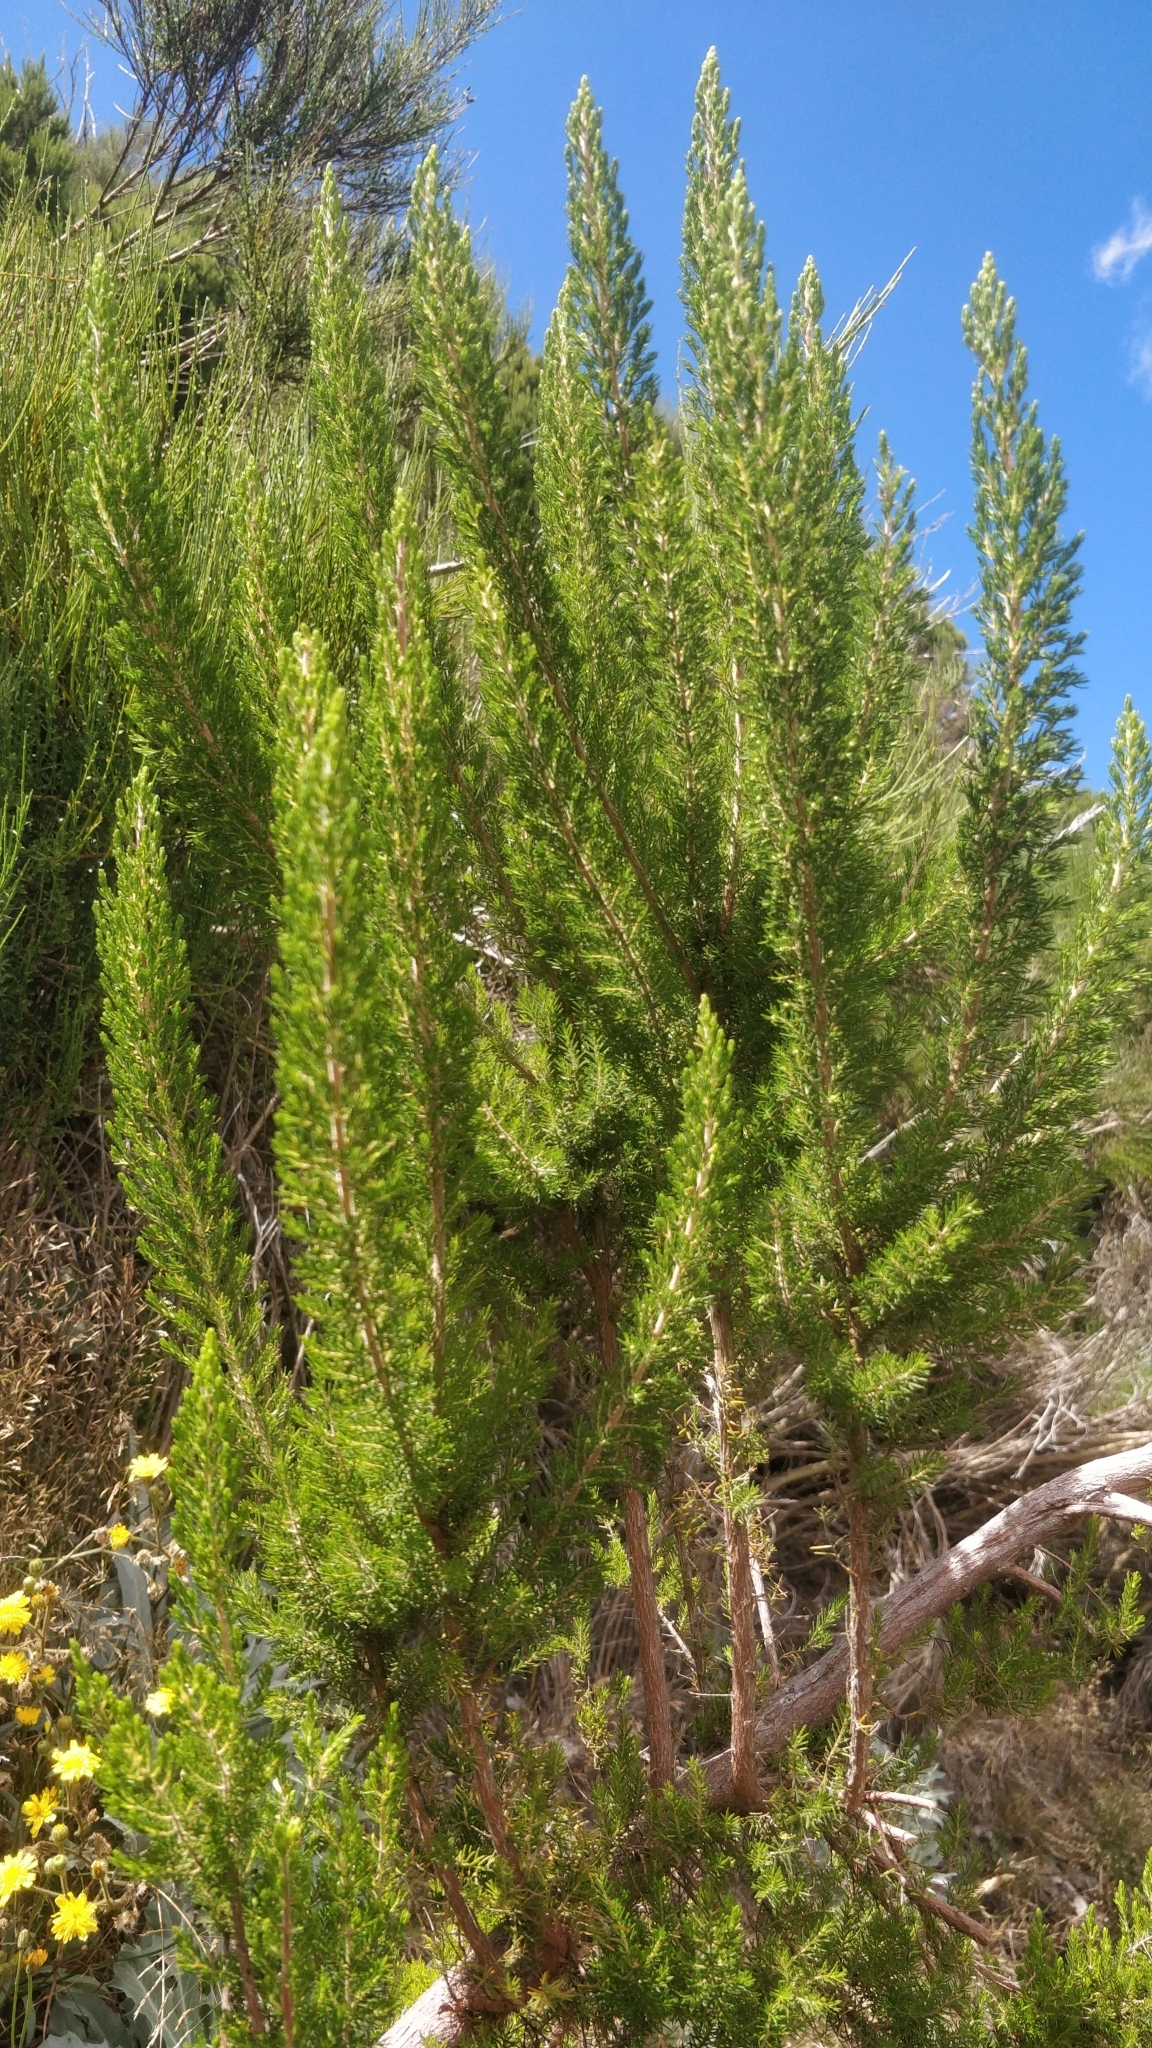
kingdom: Plantae
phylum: Tracheophyta
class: Magnoliopsida
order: Ericales
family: Ericaceae
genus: Erica
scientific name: Erica canariensis
